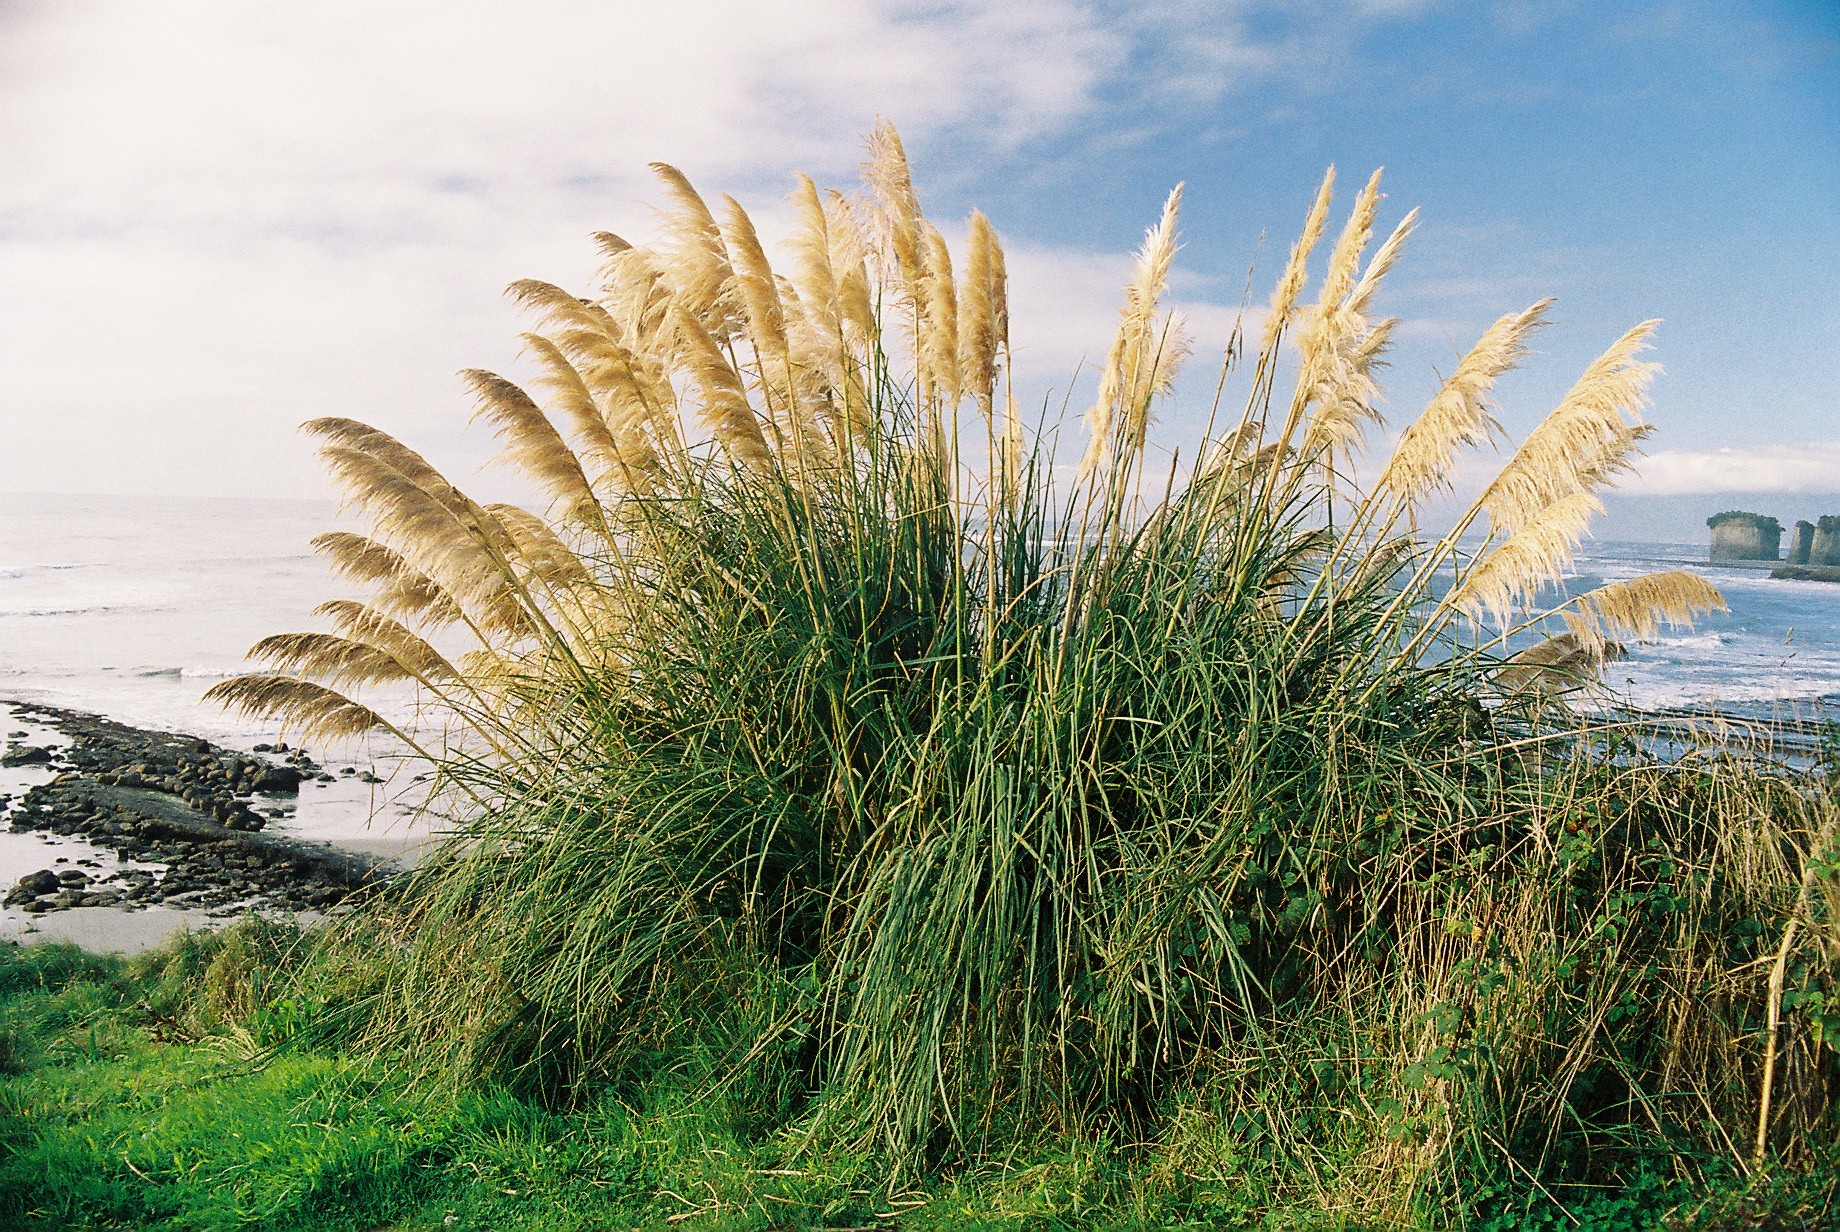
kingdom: Plantae
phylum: Tracheophyta
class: Liliopsida
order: Poales
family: Poaceae
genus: Cortaderia
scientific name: Cortaderia selloana
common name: Uruguayan pampas grass
